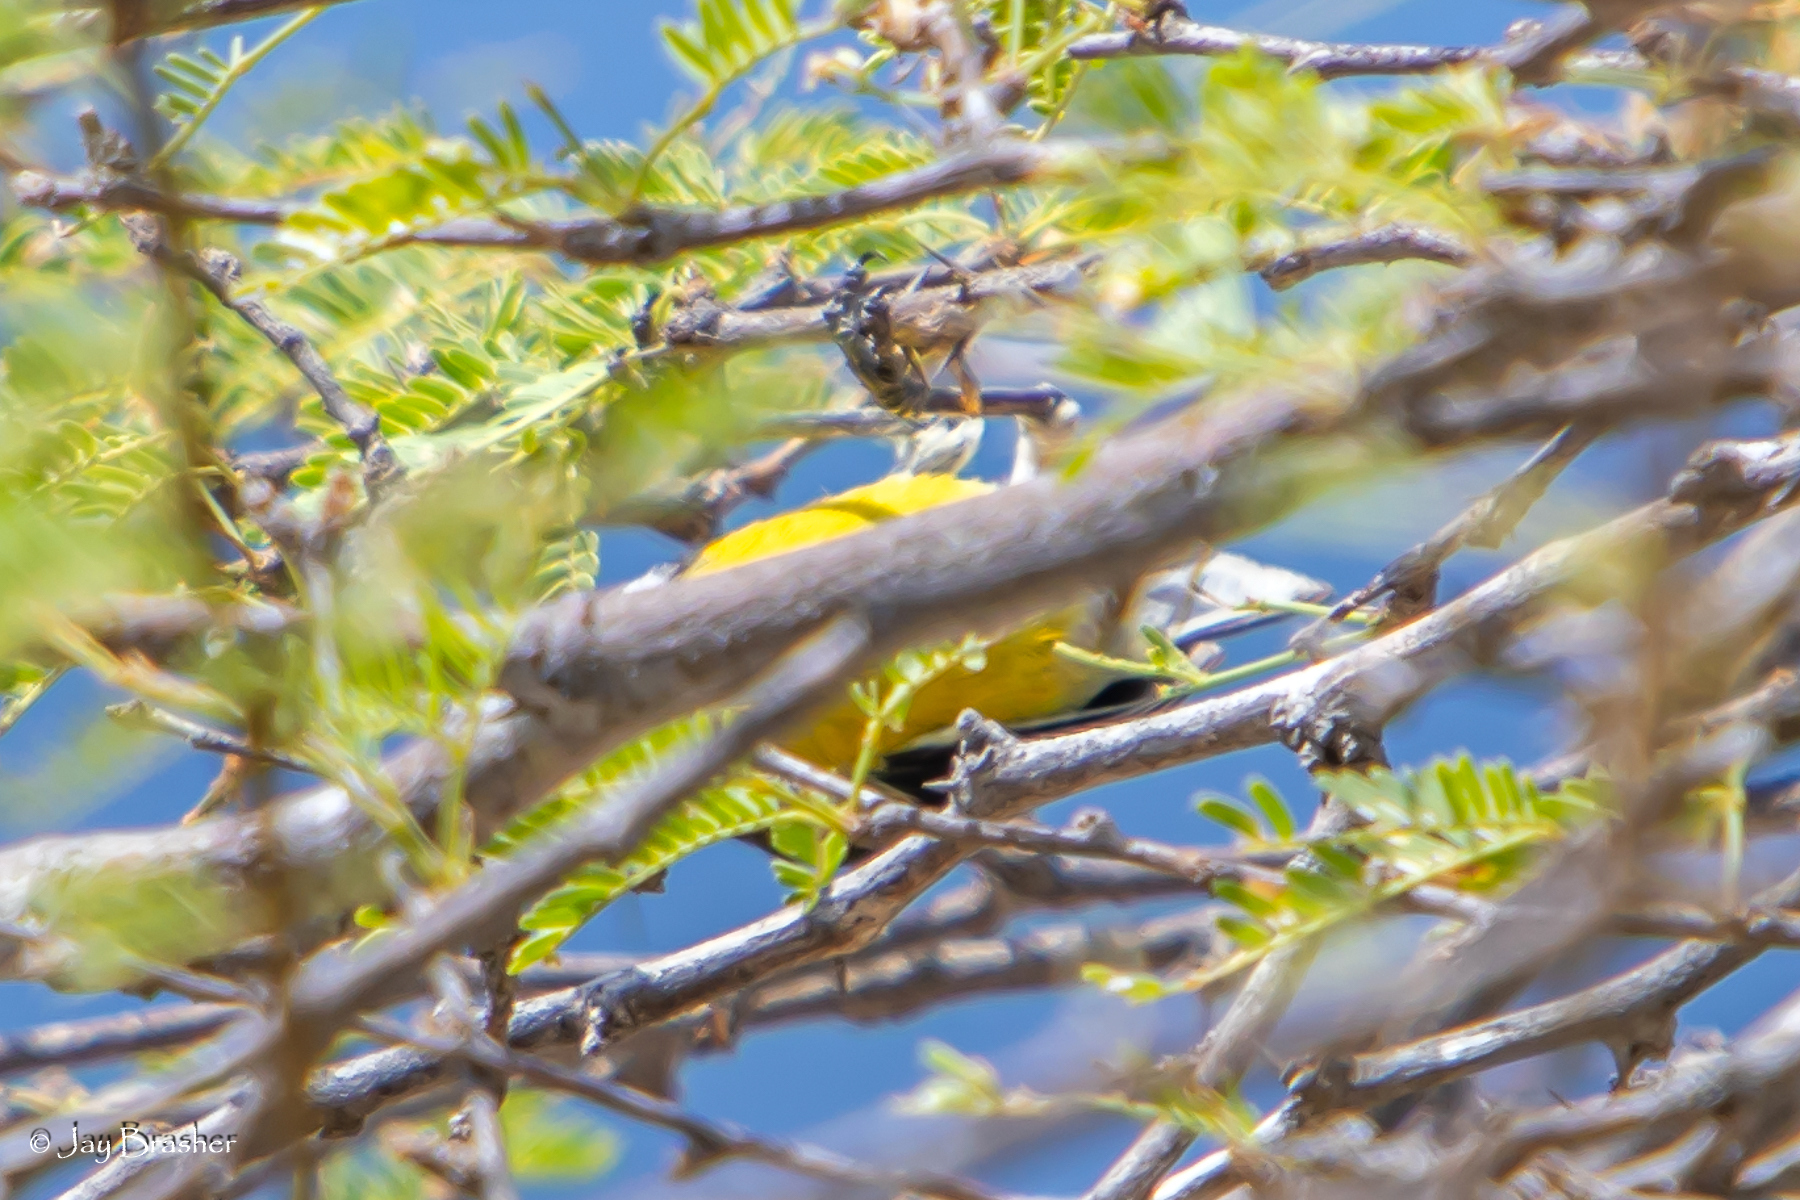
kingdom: Animalia
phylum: Chordata
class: Aves
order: Passeriformes
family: Thraupidae
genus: Coereba
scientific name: Coereba flaveola
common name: Bananaquit
